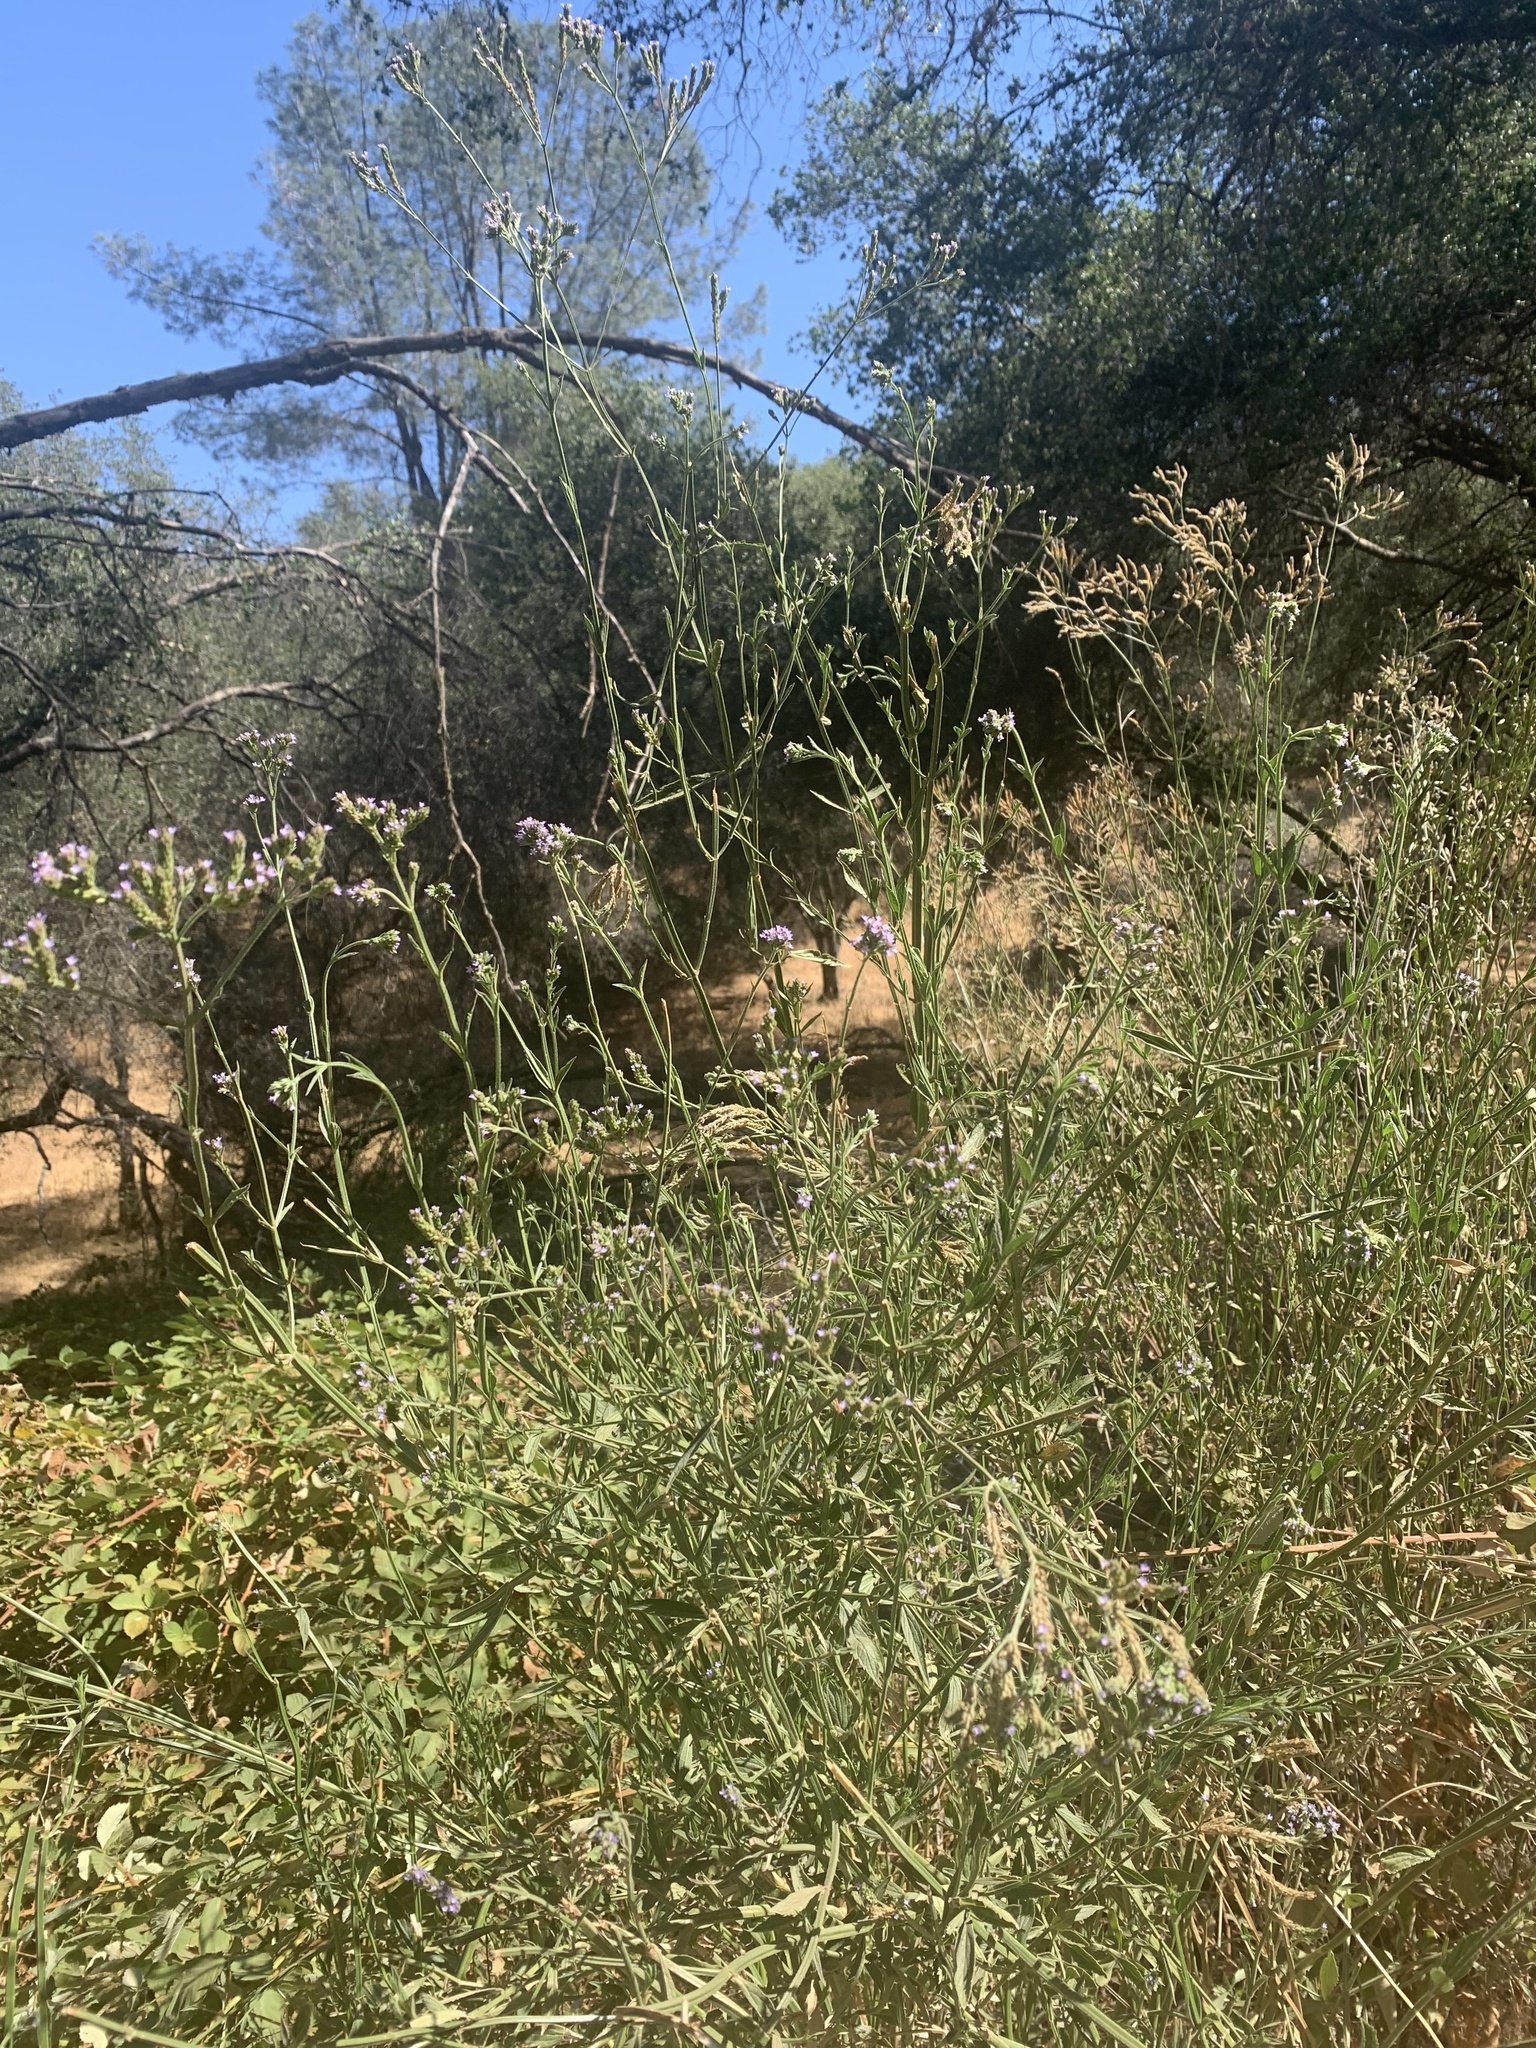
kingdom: Plantae
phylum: Tracheophyta
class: Magnoliopsida
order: Lamiales
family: Verbenaceae
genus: Verbena
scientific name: Verbena brasiliensis
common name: Brazilian vervain
